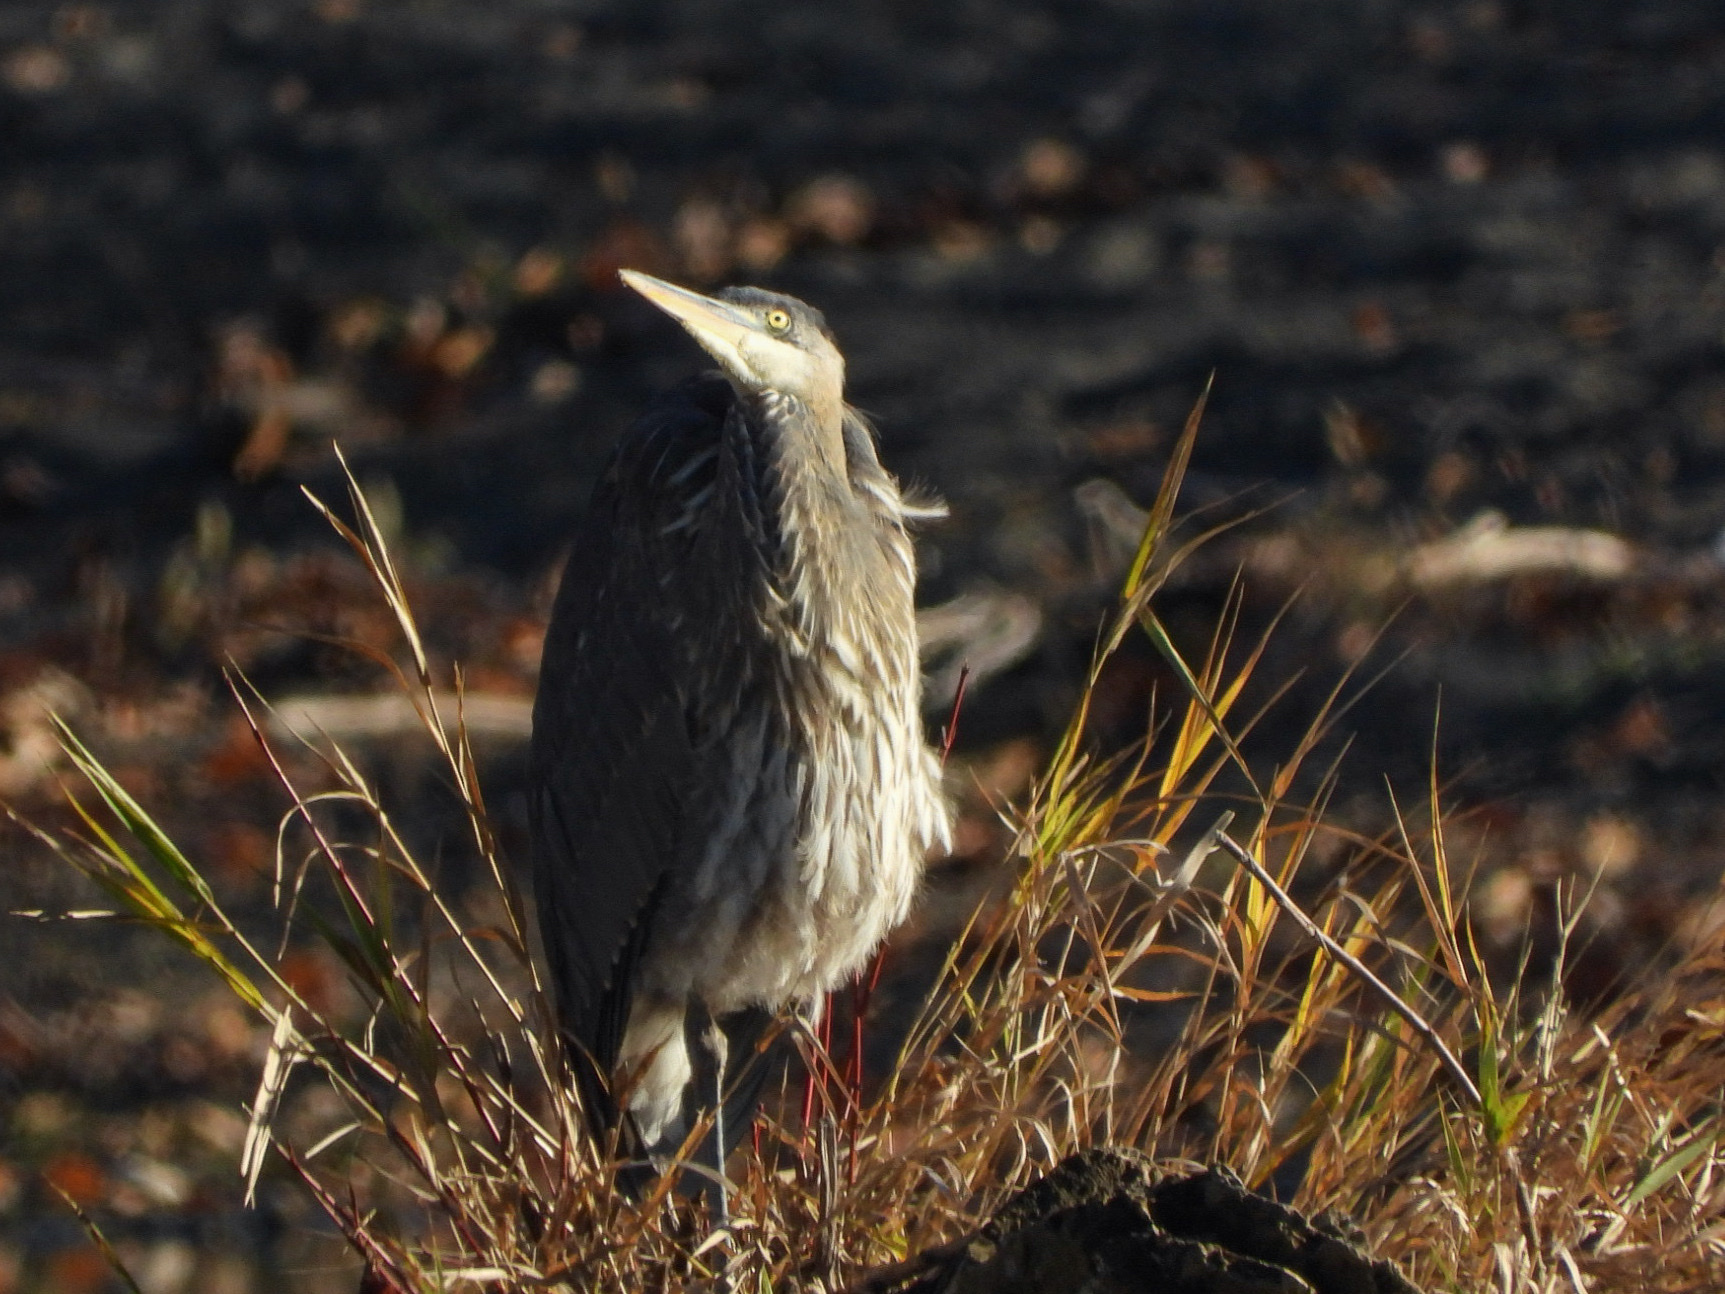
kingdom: Animalia
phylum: Chordata
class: Aves
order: Pelecaniformes
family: Ardeidae
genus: Ardea
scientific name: Ardea herodias
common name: Great blue heron
